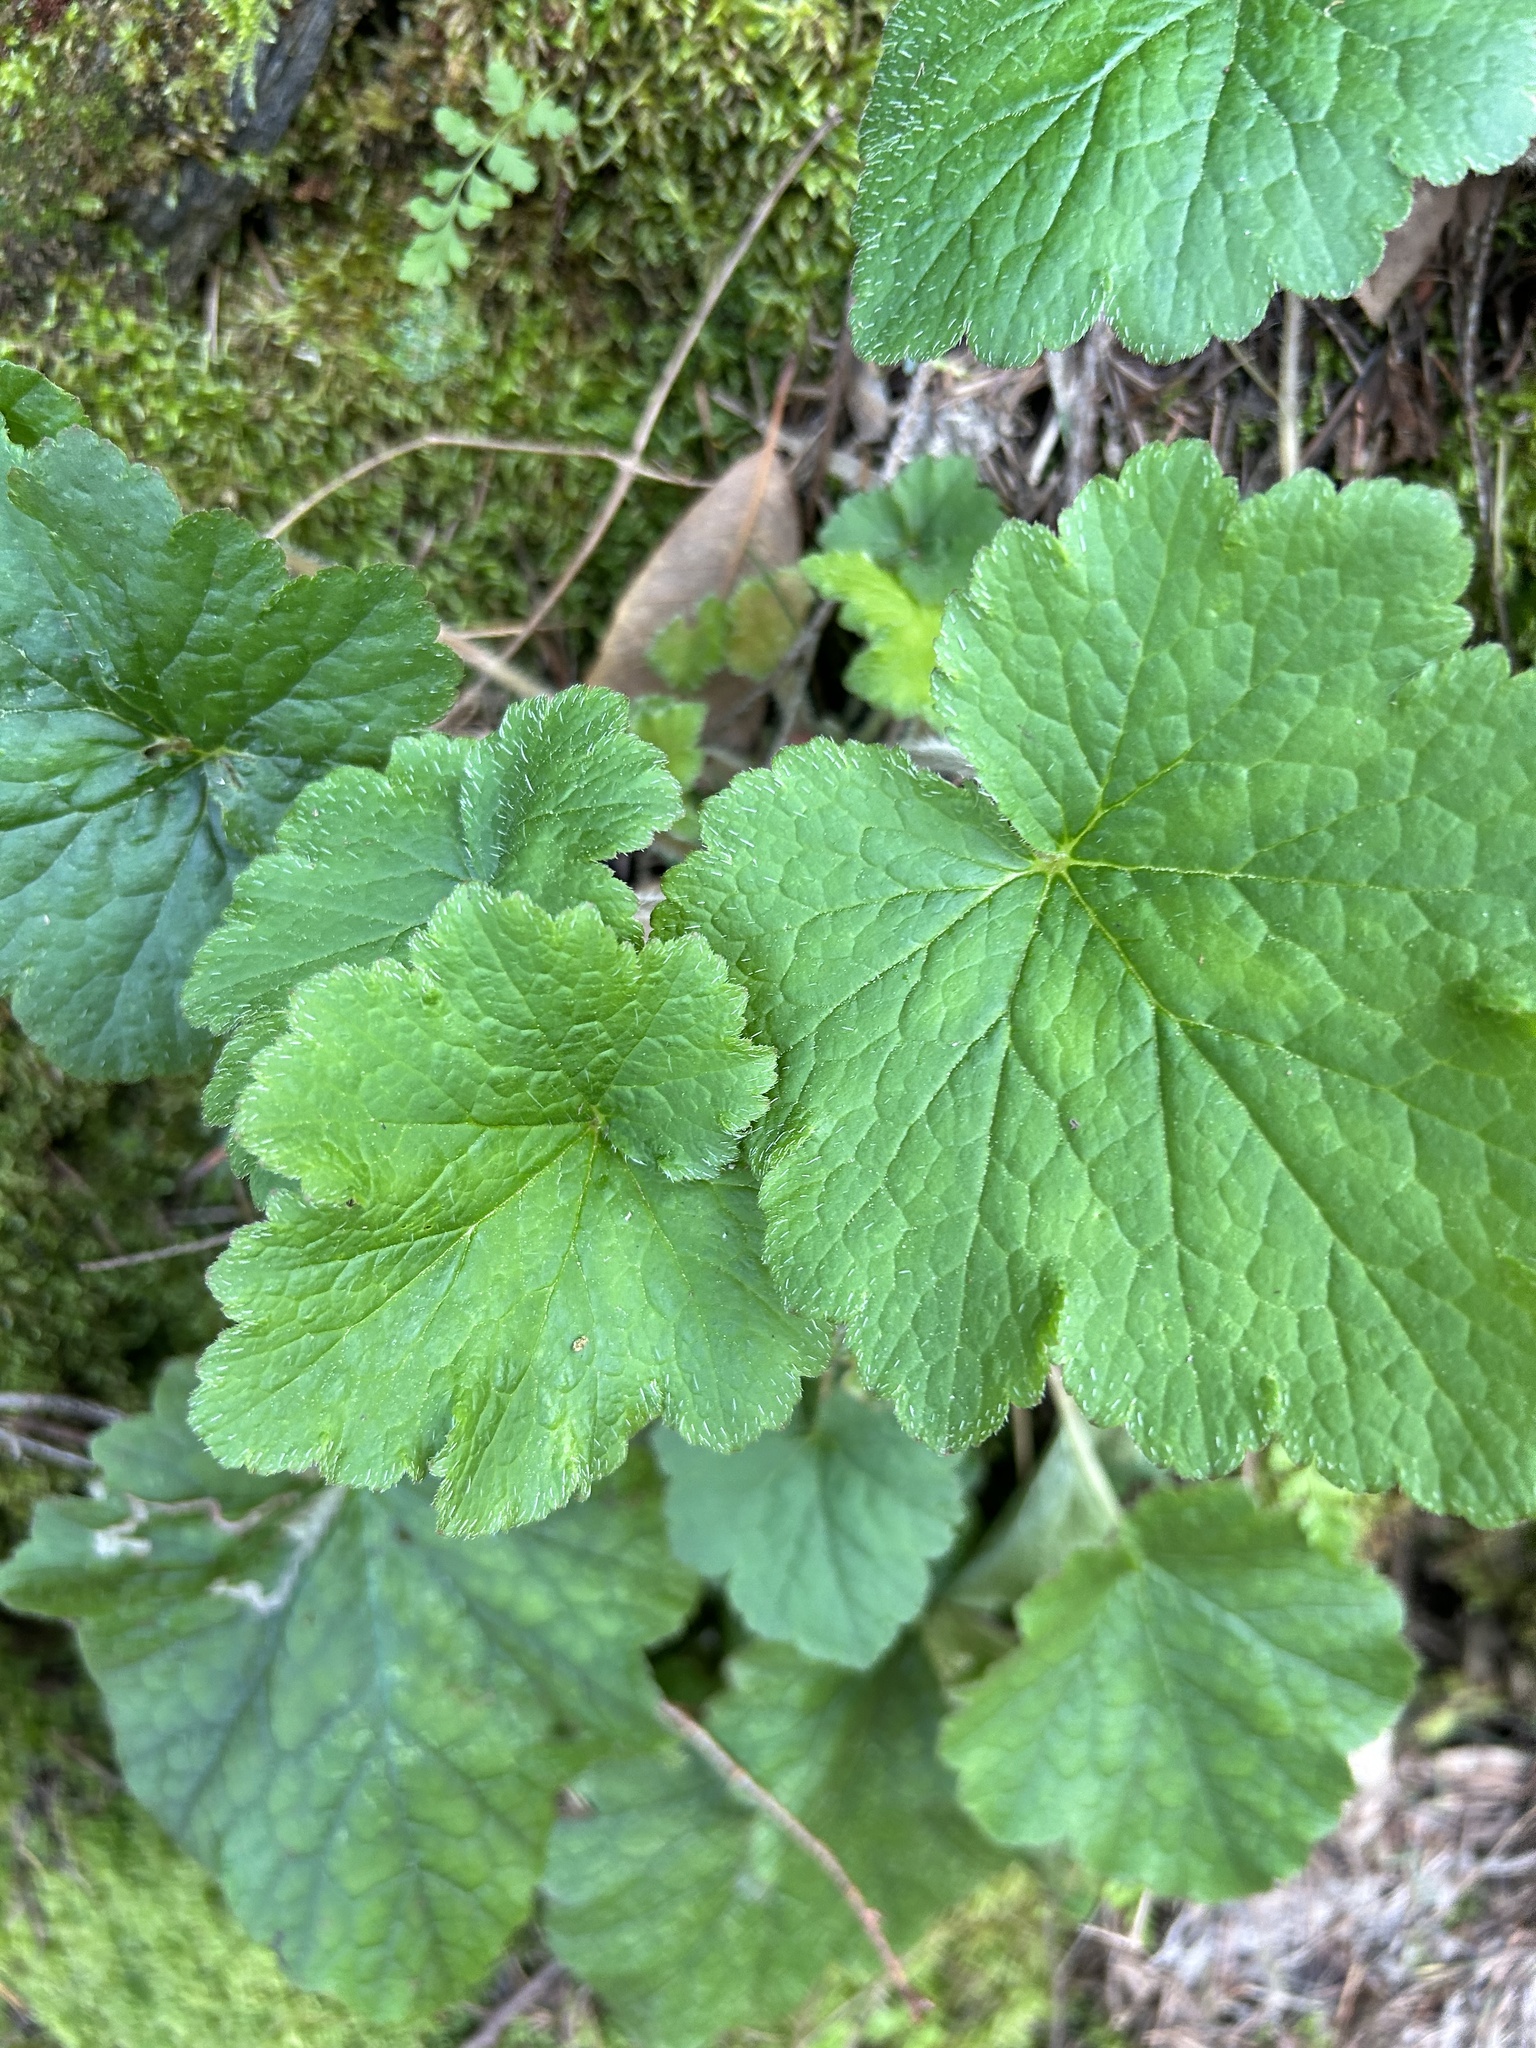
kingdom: Plantae
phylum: Tracheophyta
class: Magnoliopsida
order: Saxifragales
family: Saxifragaceae
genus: Tellima
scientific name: Tellima grandiflora
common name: Fringecups
